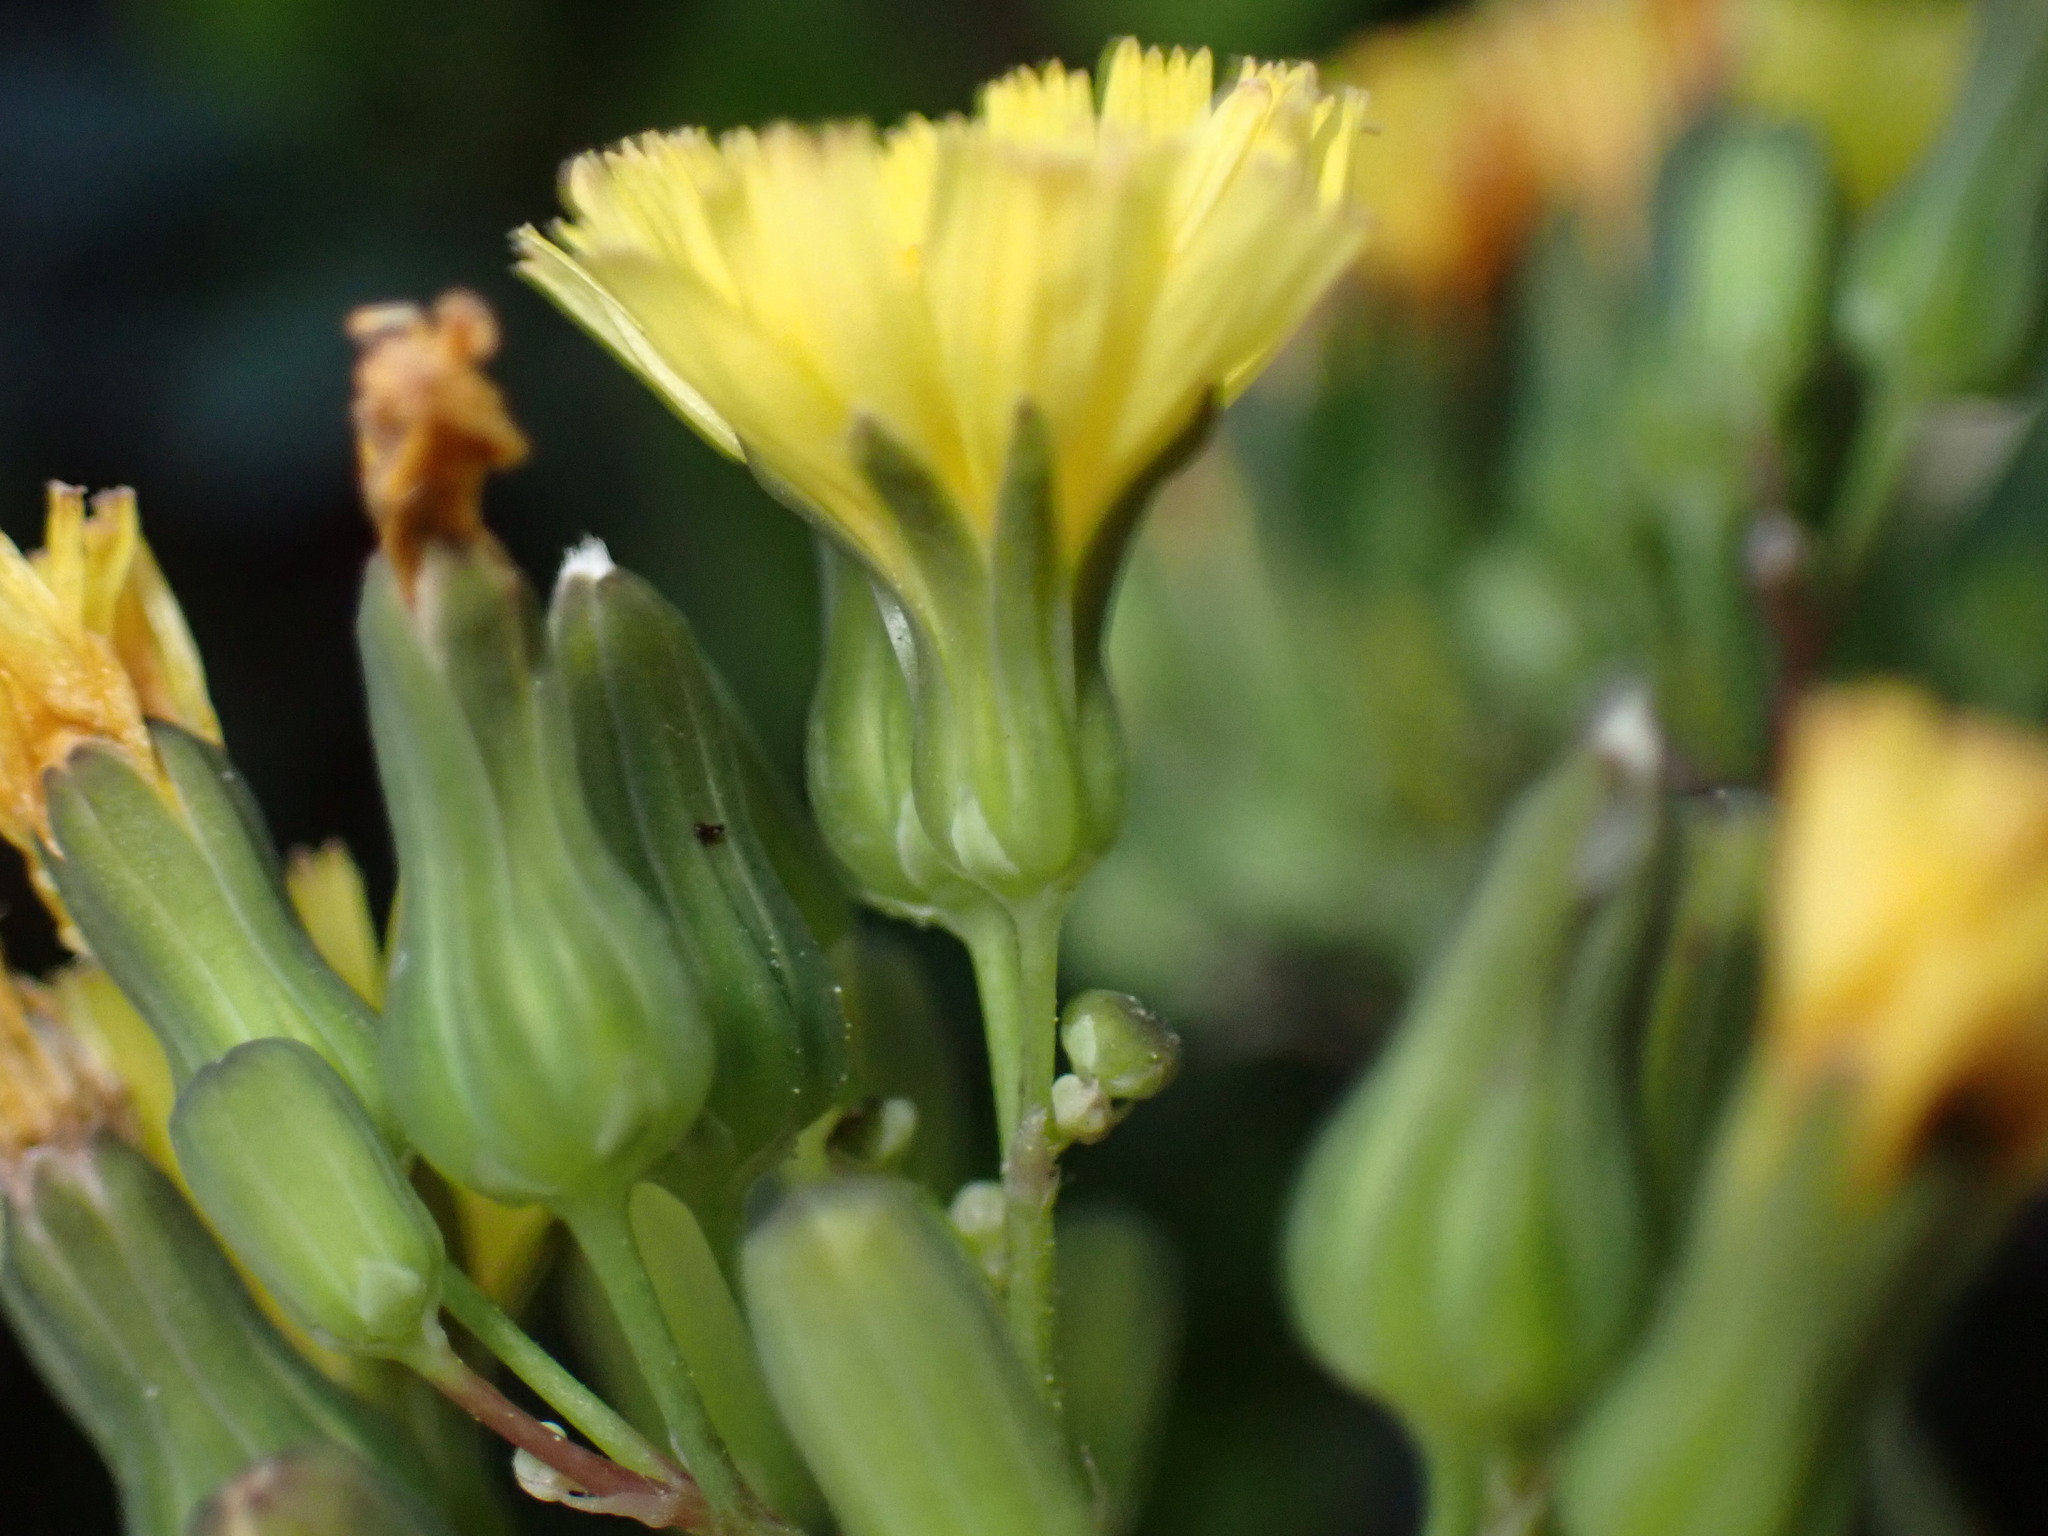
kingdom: Plantae
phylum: Tracheophyta
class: Magnoliopsida
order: Asterales
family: Asteraceae
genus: Youngia
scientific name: Youngia japonica
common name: Oriental false hawksbeard
